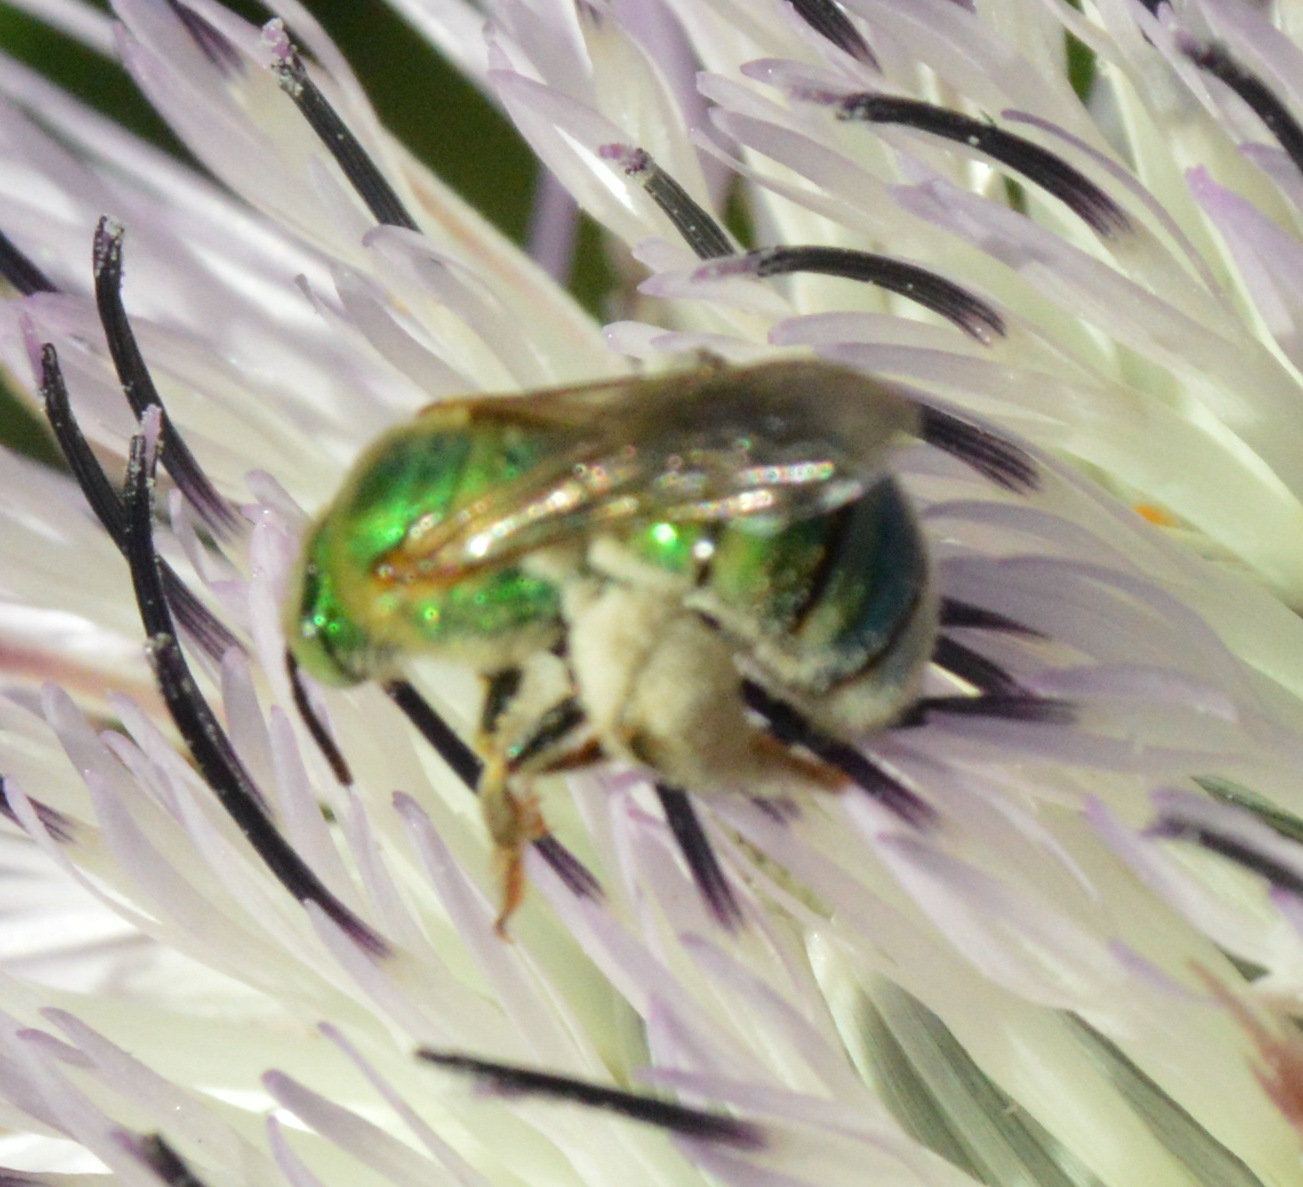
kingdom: Animalia
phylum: Arthropoda
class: Insecta
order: Hymenoptera
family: Halictidae
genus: Agapostemon
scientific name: Agapostemon splendens
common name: Brown-winged striped sweat bee
